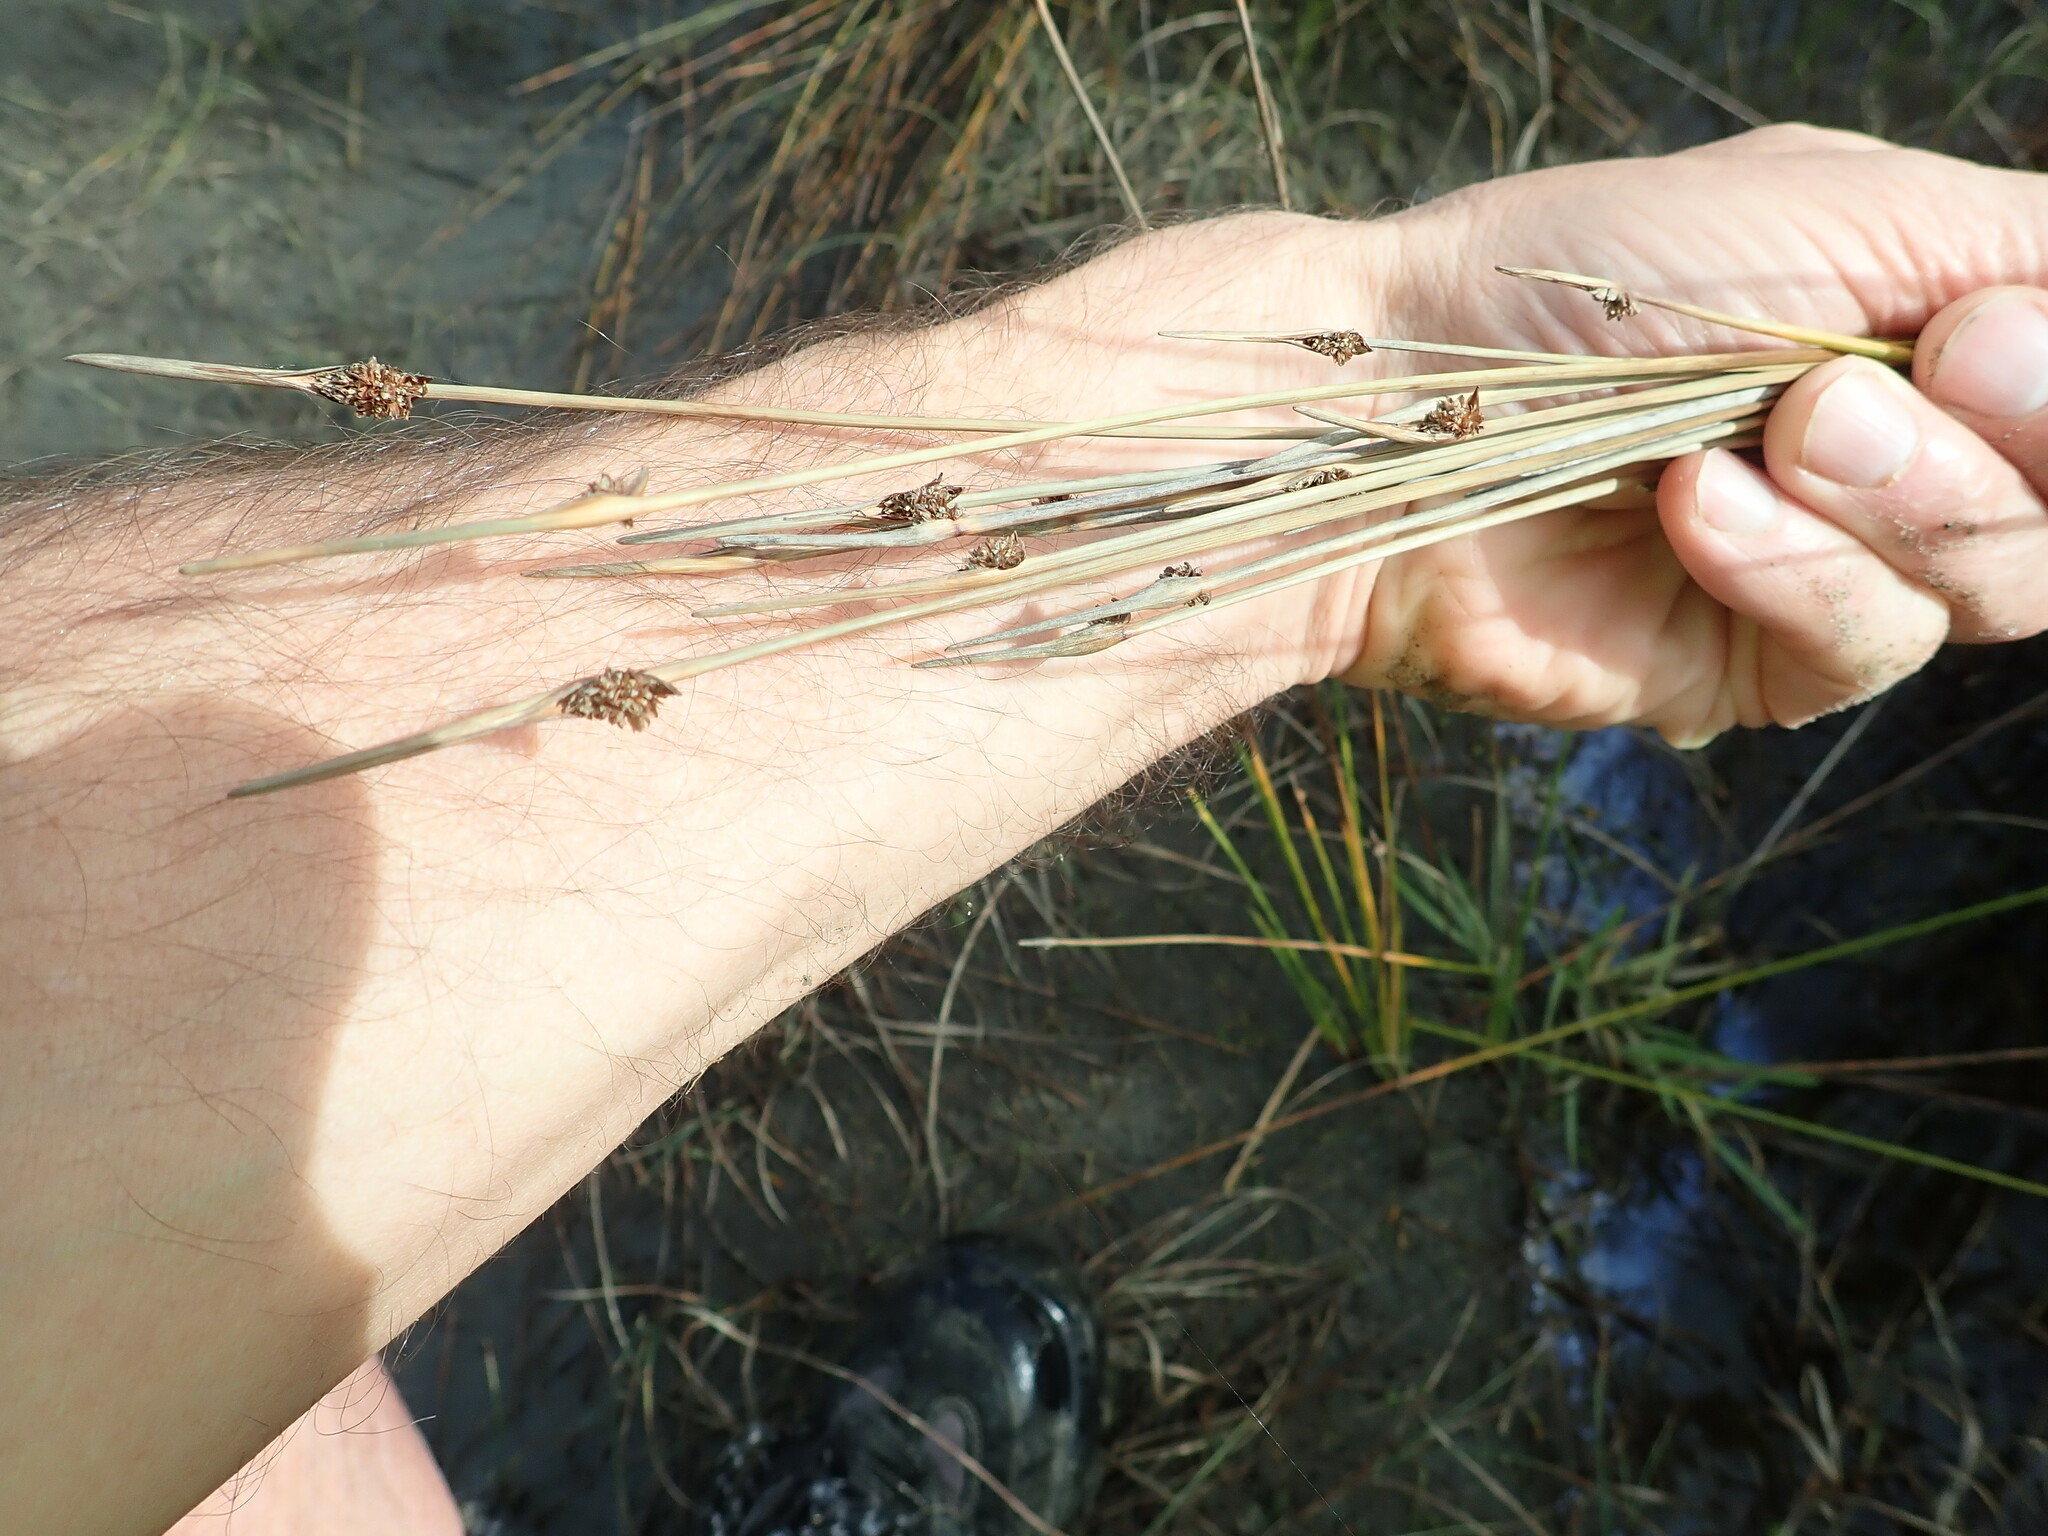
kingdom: Plantae
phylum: Tracheophyta
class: Liliopsida
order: Poales
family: Cyperaceae
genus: Ficinia
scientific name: Ficinia nodosa
